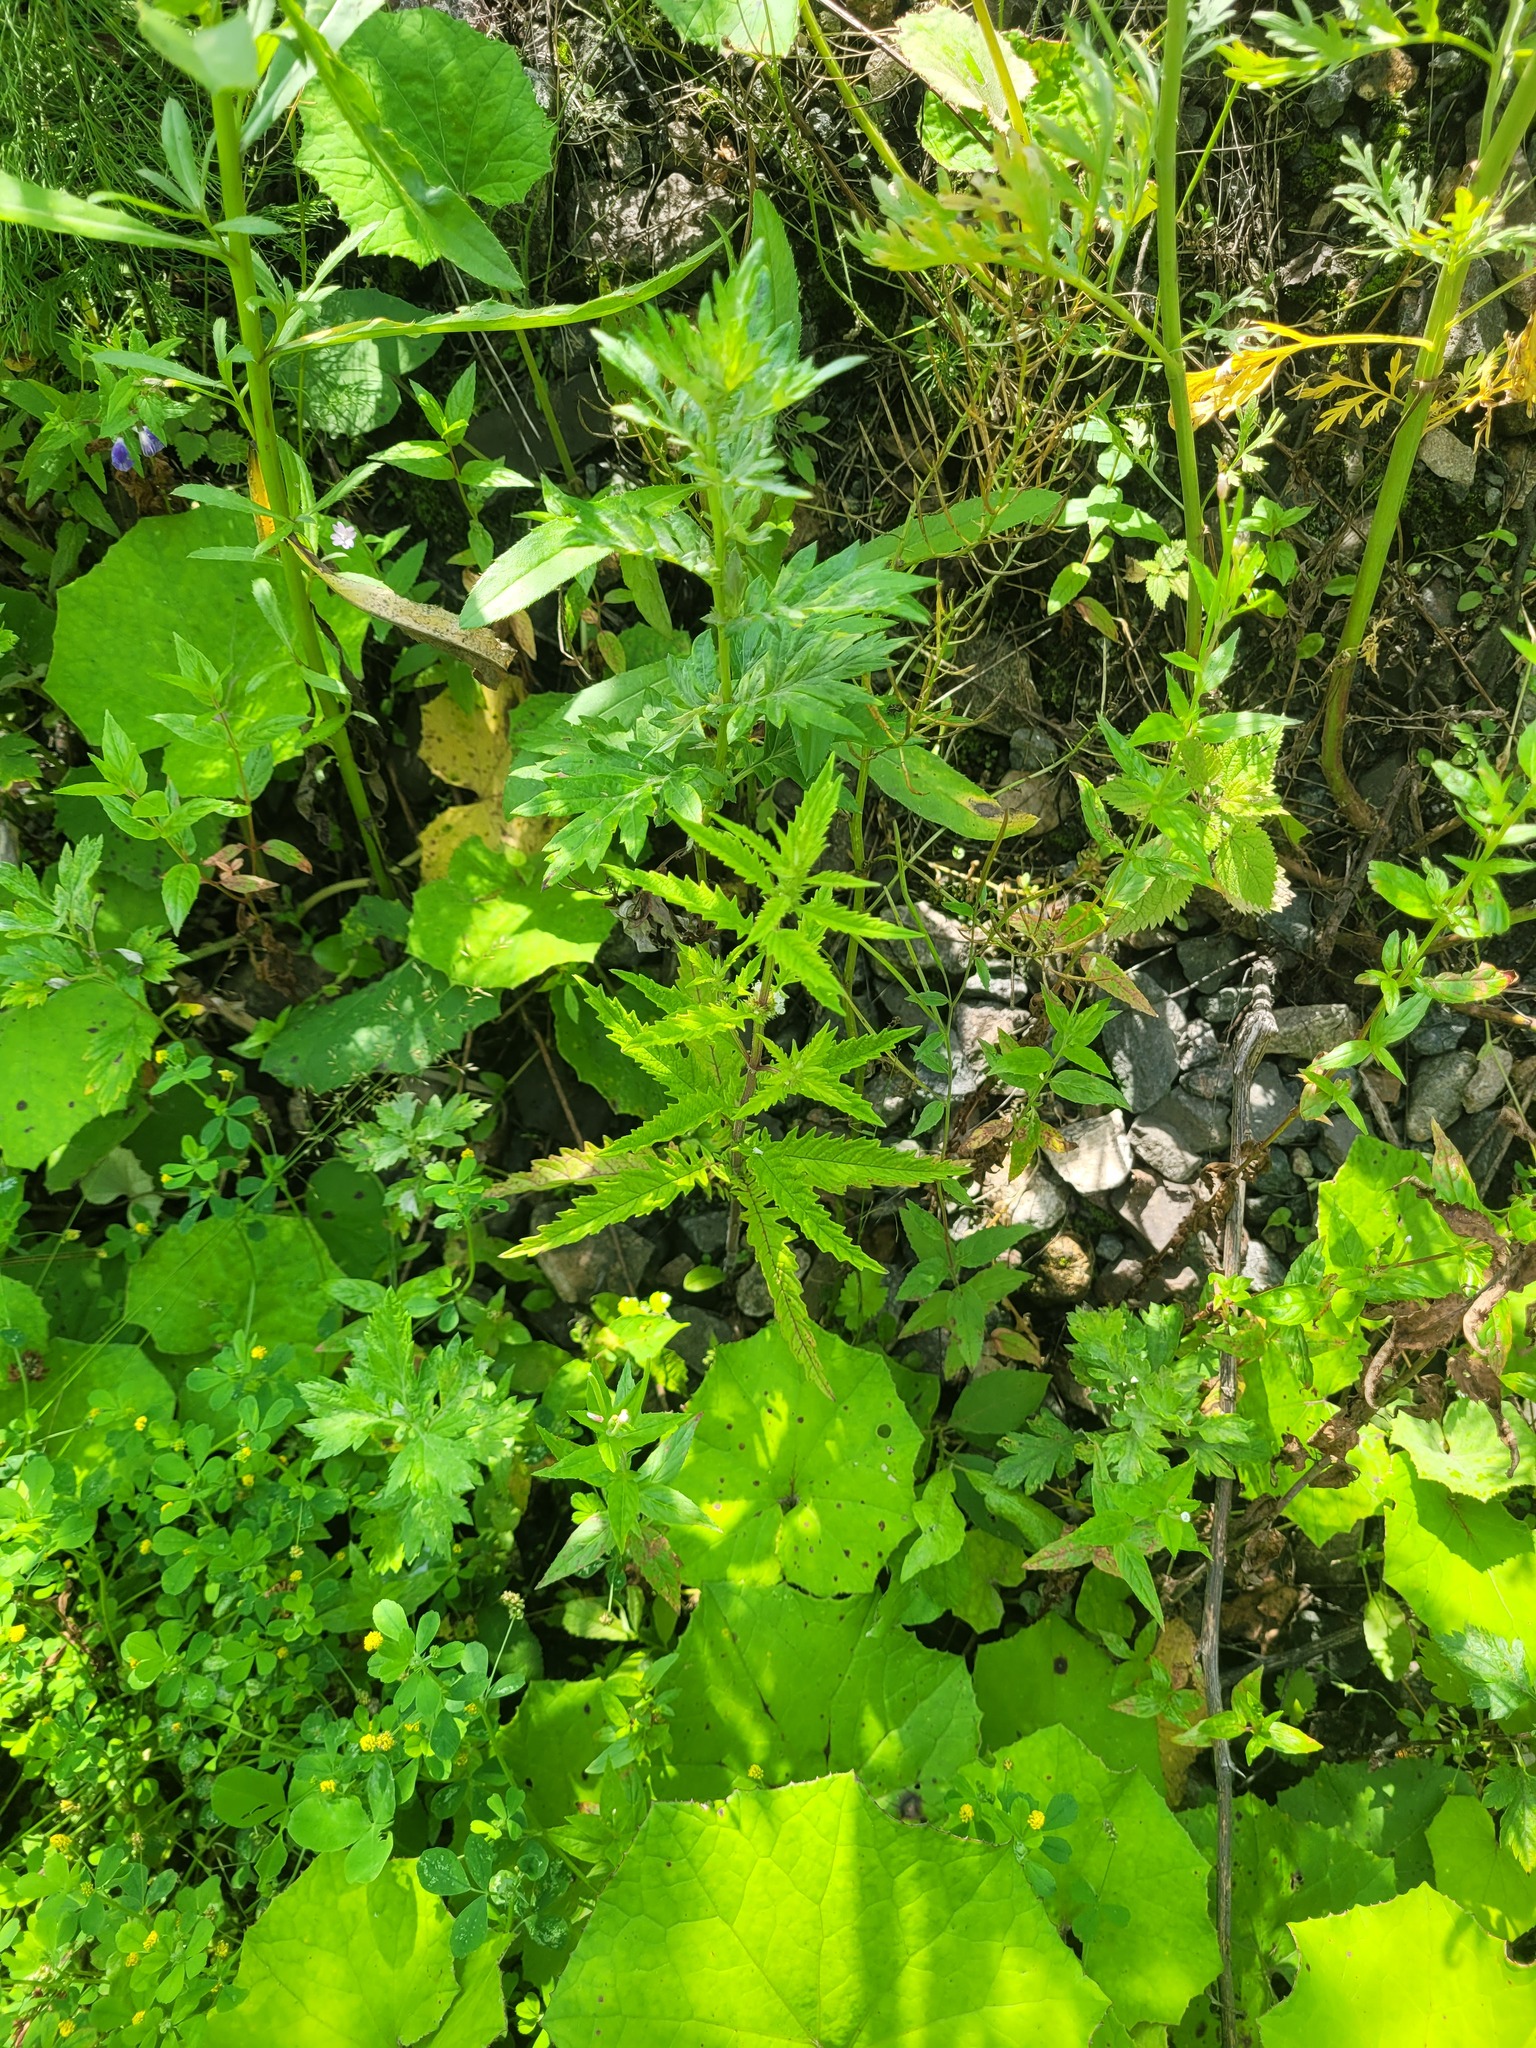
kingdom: Plantae
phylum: Tracheophyta
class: Magnoliopsida
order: Lamiales
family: Lamiaceae
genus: Lycopus
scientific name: Lycopus europaeus
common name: European bugleweed
